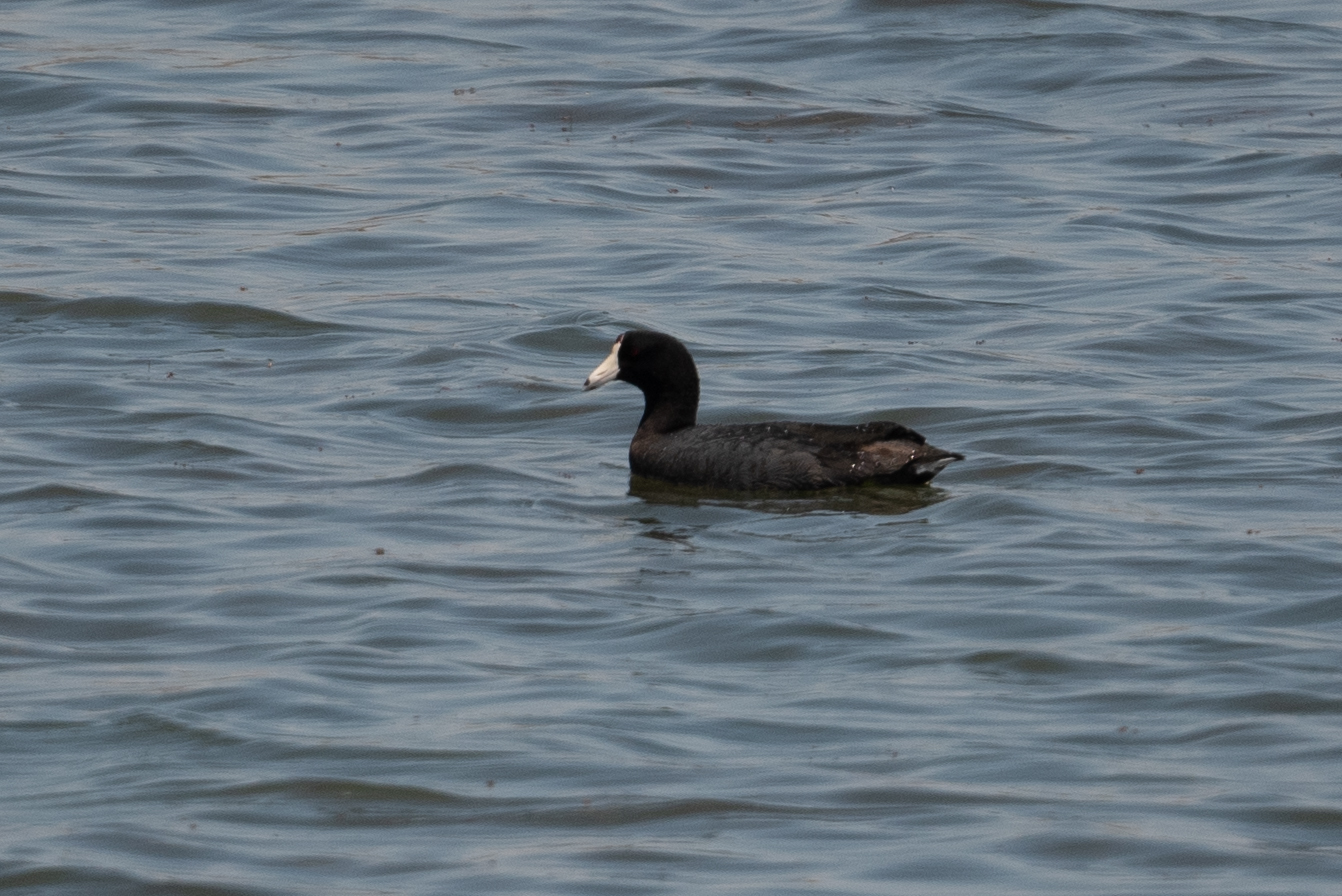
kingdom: Animalia
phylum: Chordata
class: Aves
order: Gruiformes
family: Rallidae
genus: Fulica
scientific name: Fulica americana
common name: American coot
